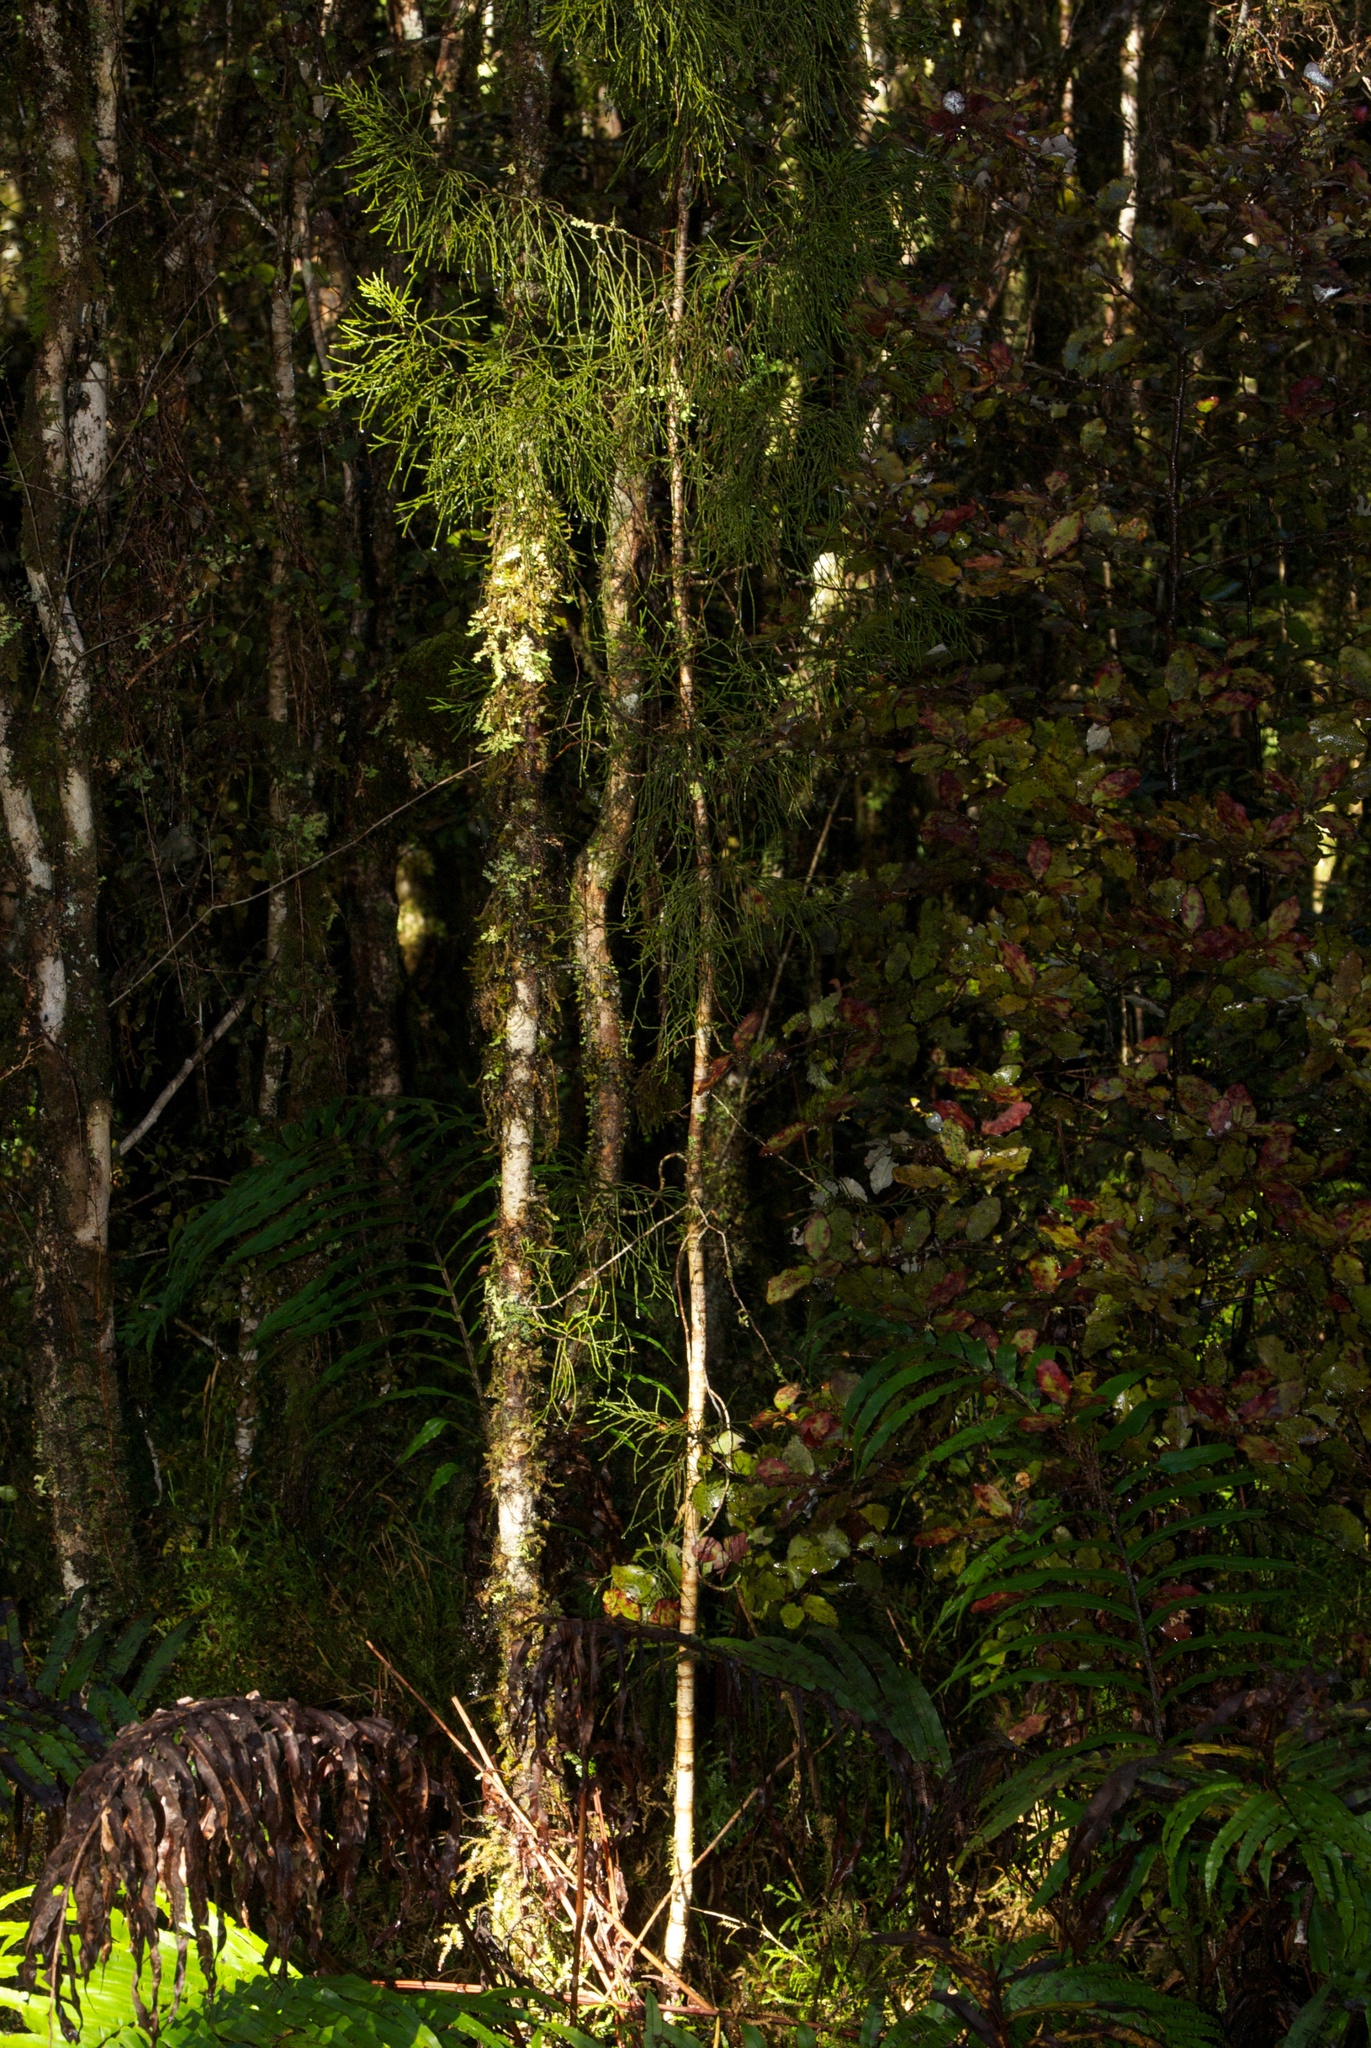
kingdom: Plantae
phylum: Tracheophyta
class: Pinopsida
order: Pinales
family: Podocarpaceae
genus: Manoao
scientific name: Manoao colensoi
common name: Silver pine
